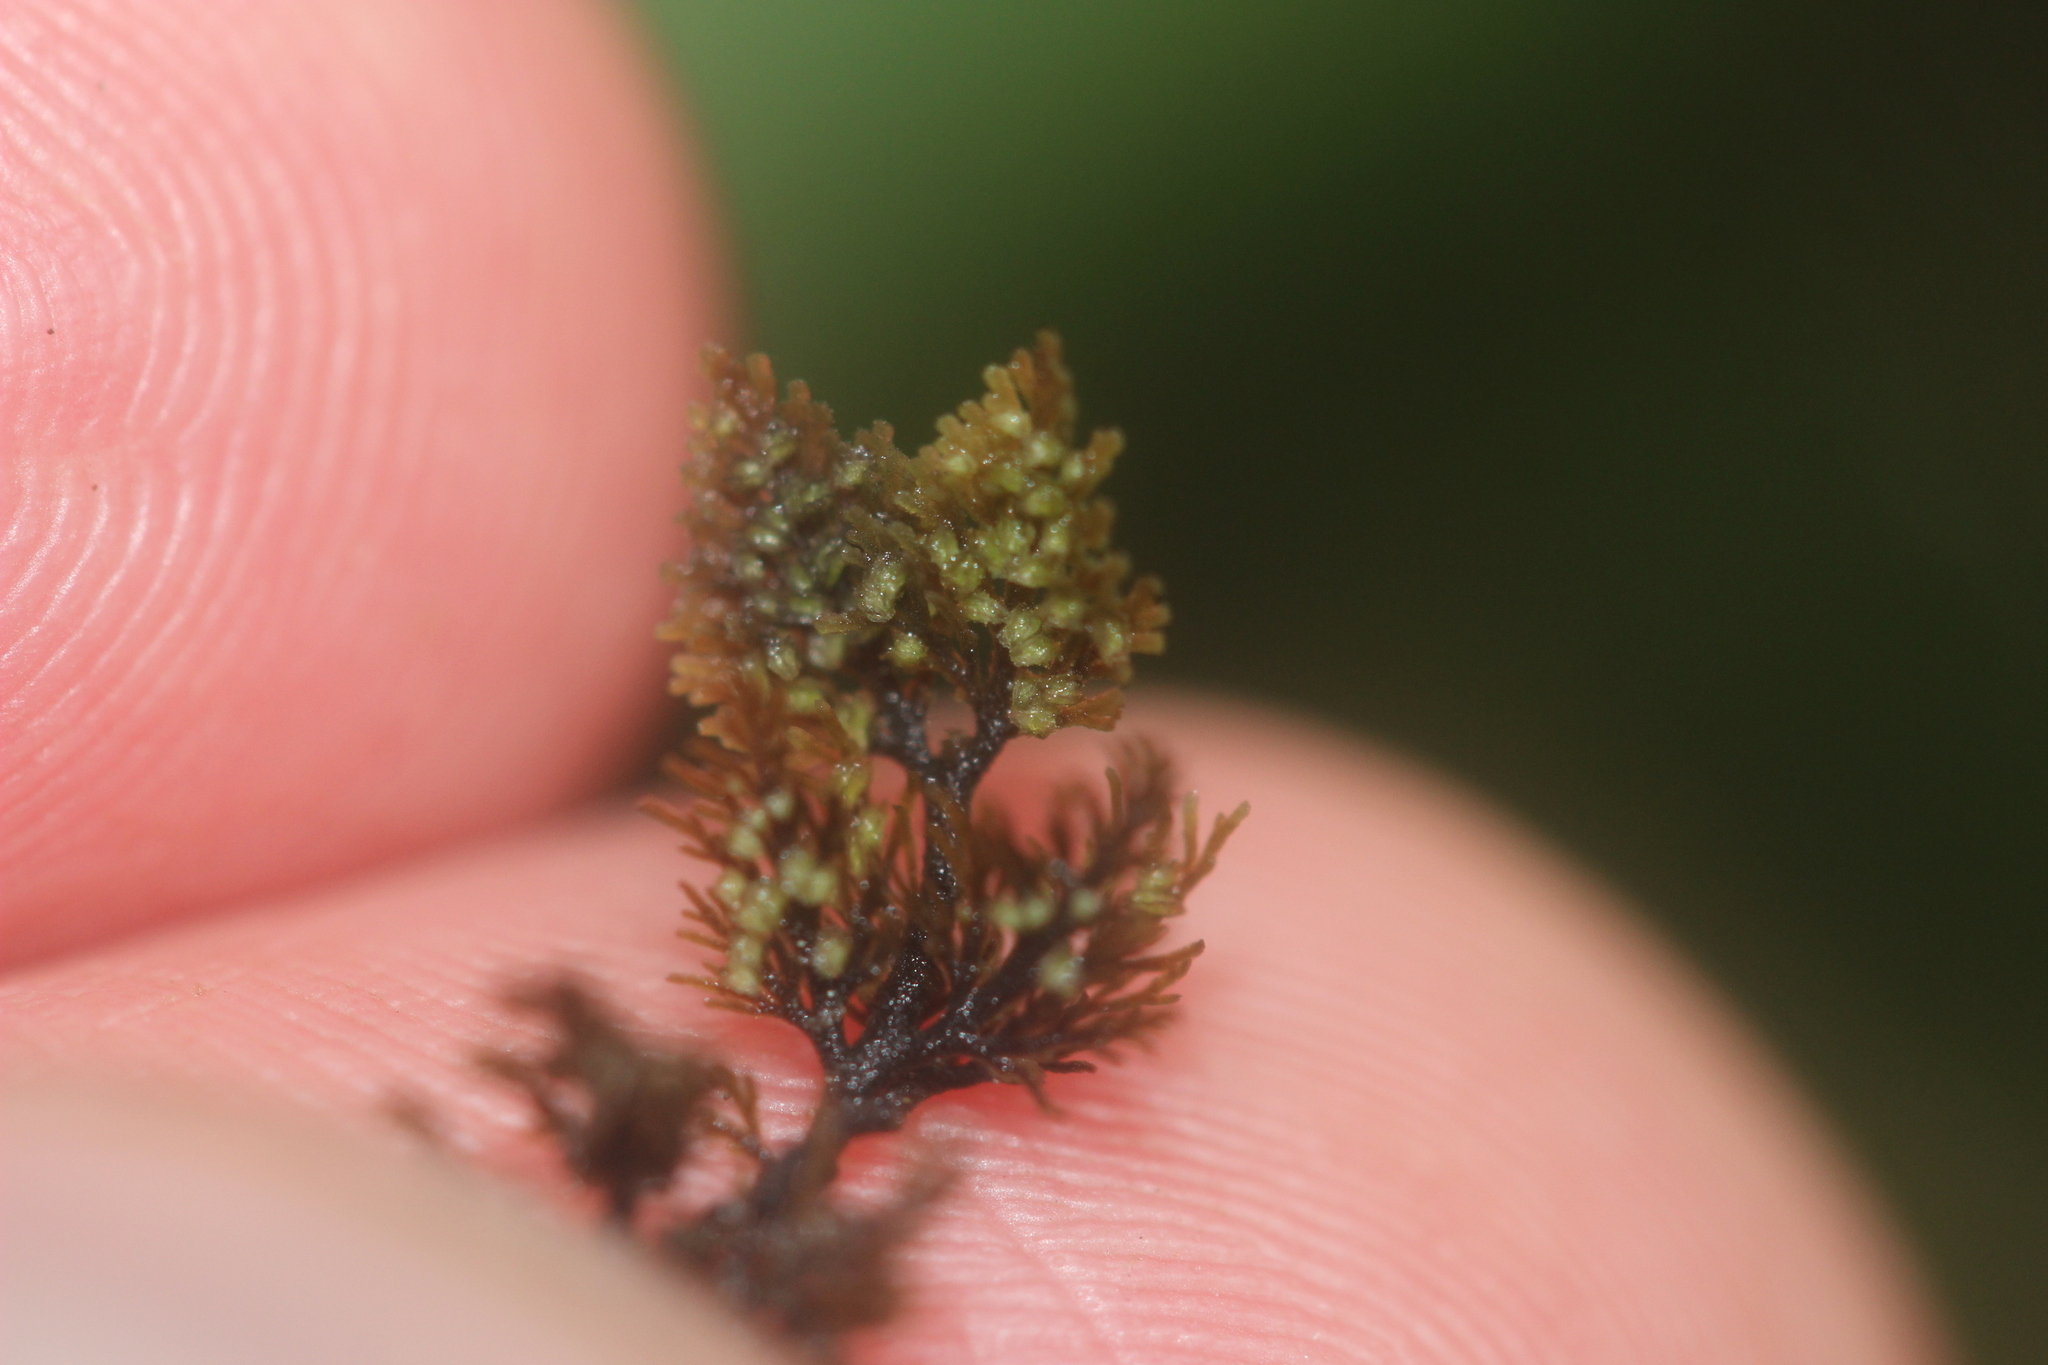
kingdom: Plantae
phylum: Marchantiophyta
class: Jungermanniopsida
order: Metzgeriales
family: Aneuraceae
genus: Riccardia
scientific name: Riccardia eriocaula
